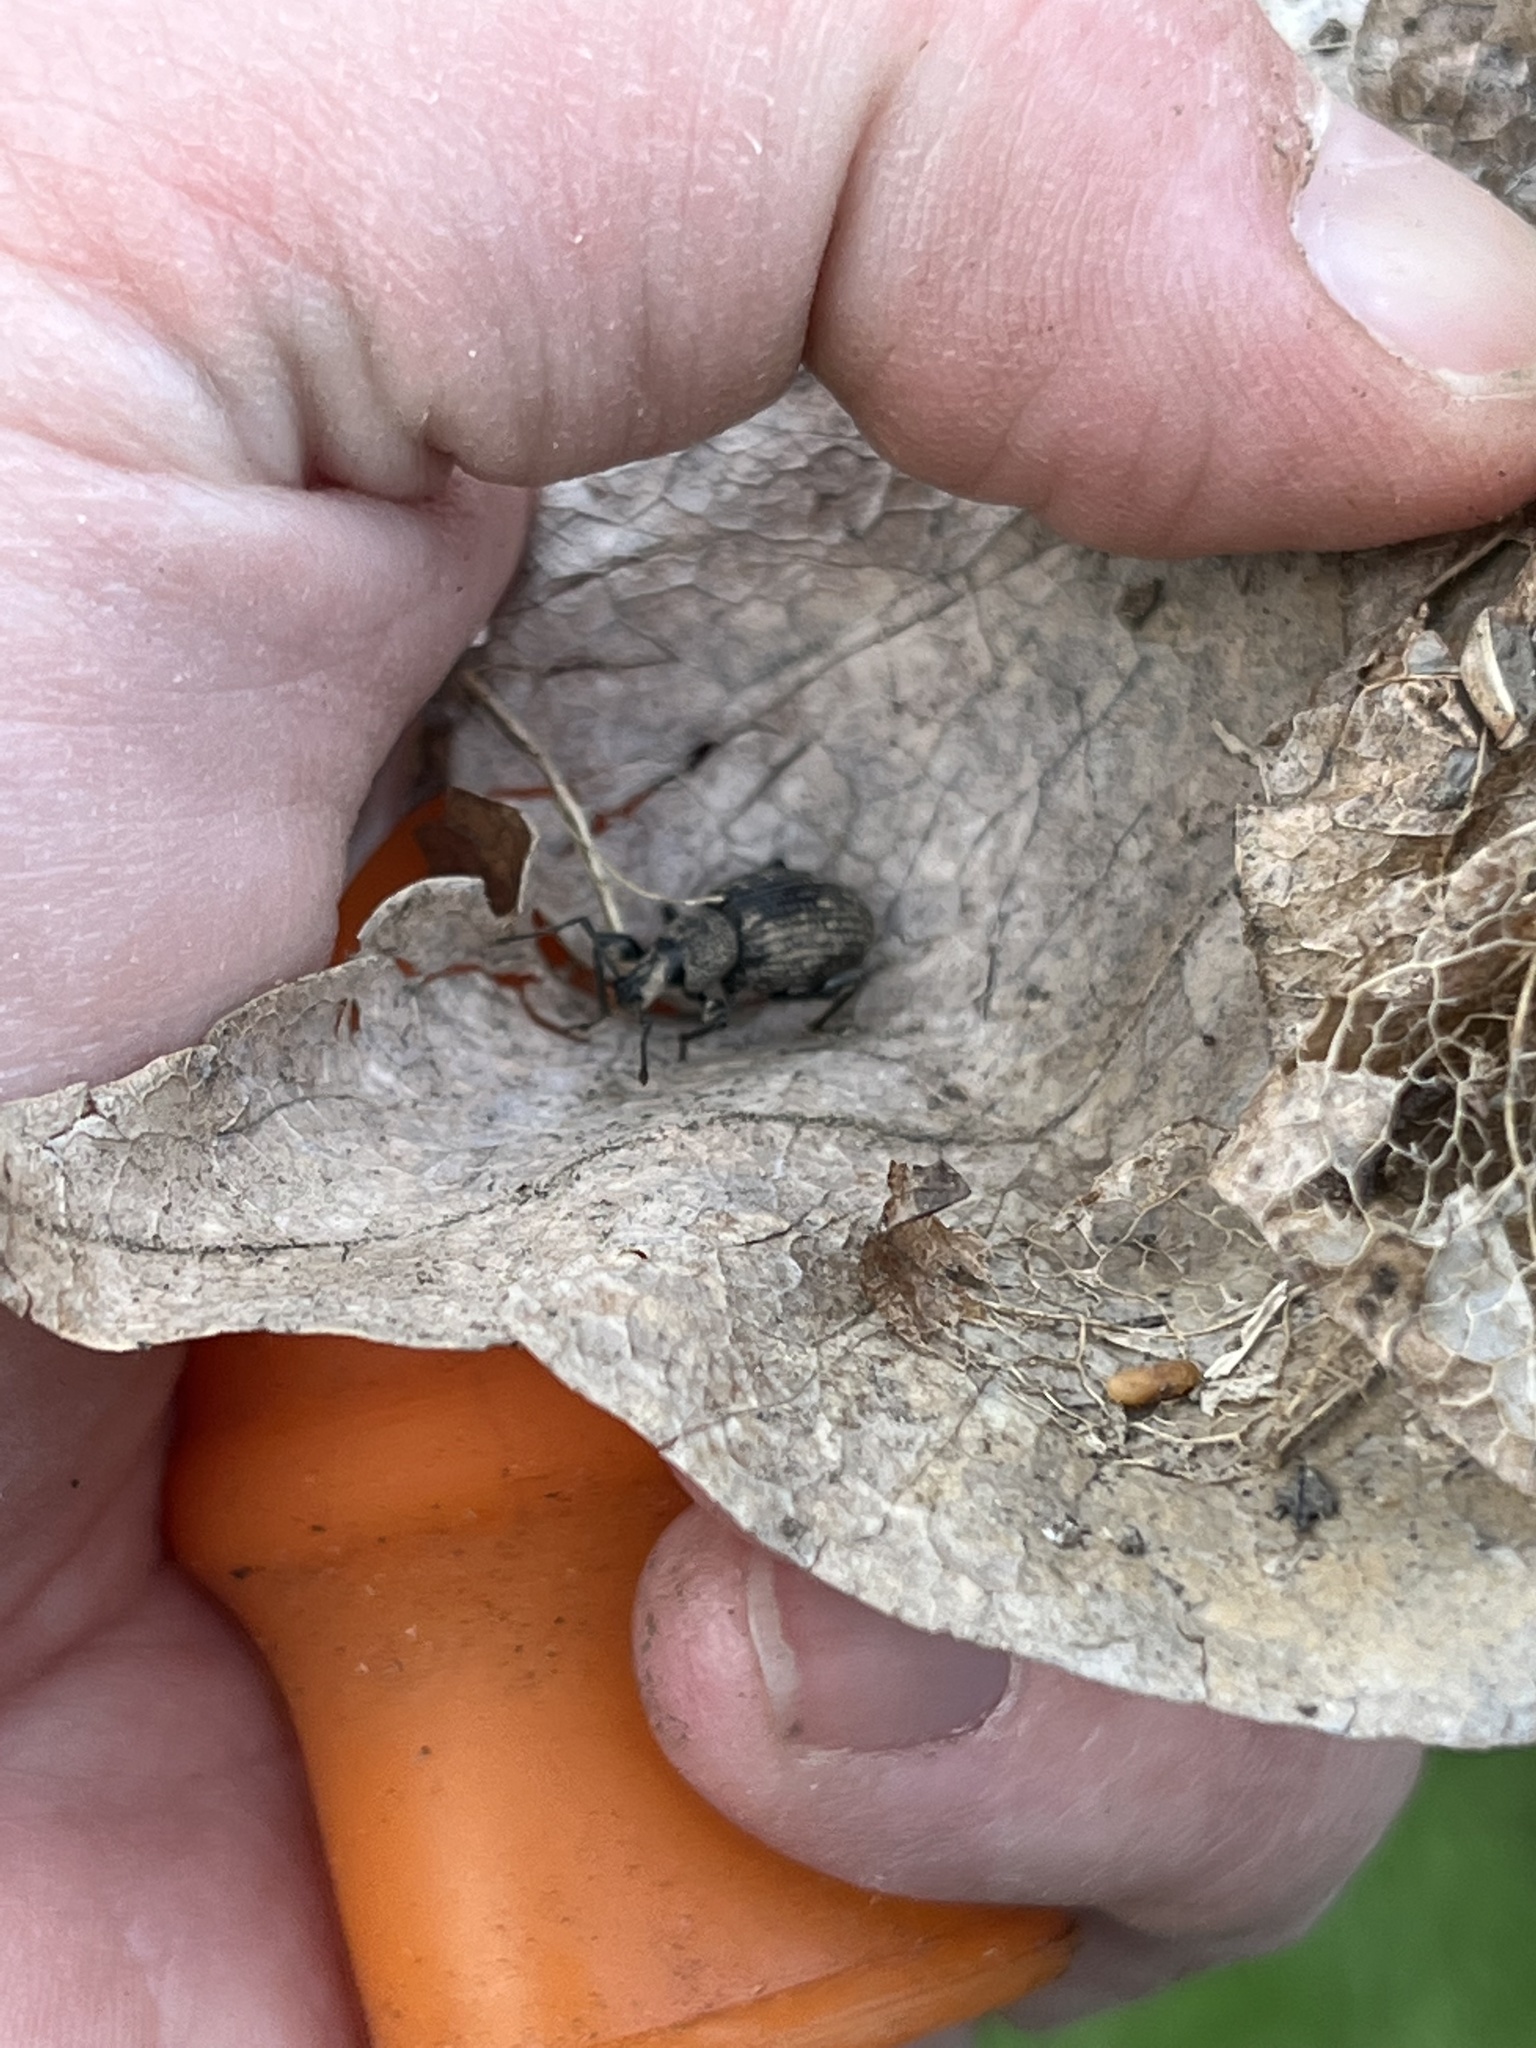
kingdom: Animalia
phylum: Arthropoda
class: Insecta
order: Coleoptera
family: Curculionidae
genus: Otiorhynchus
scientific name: Otiorhynchus sulcatus
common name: Black vine weevil
